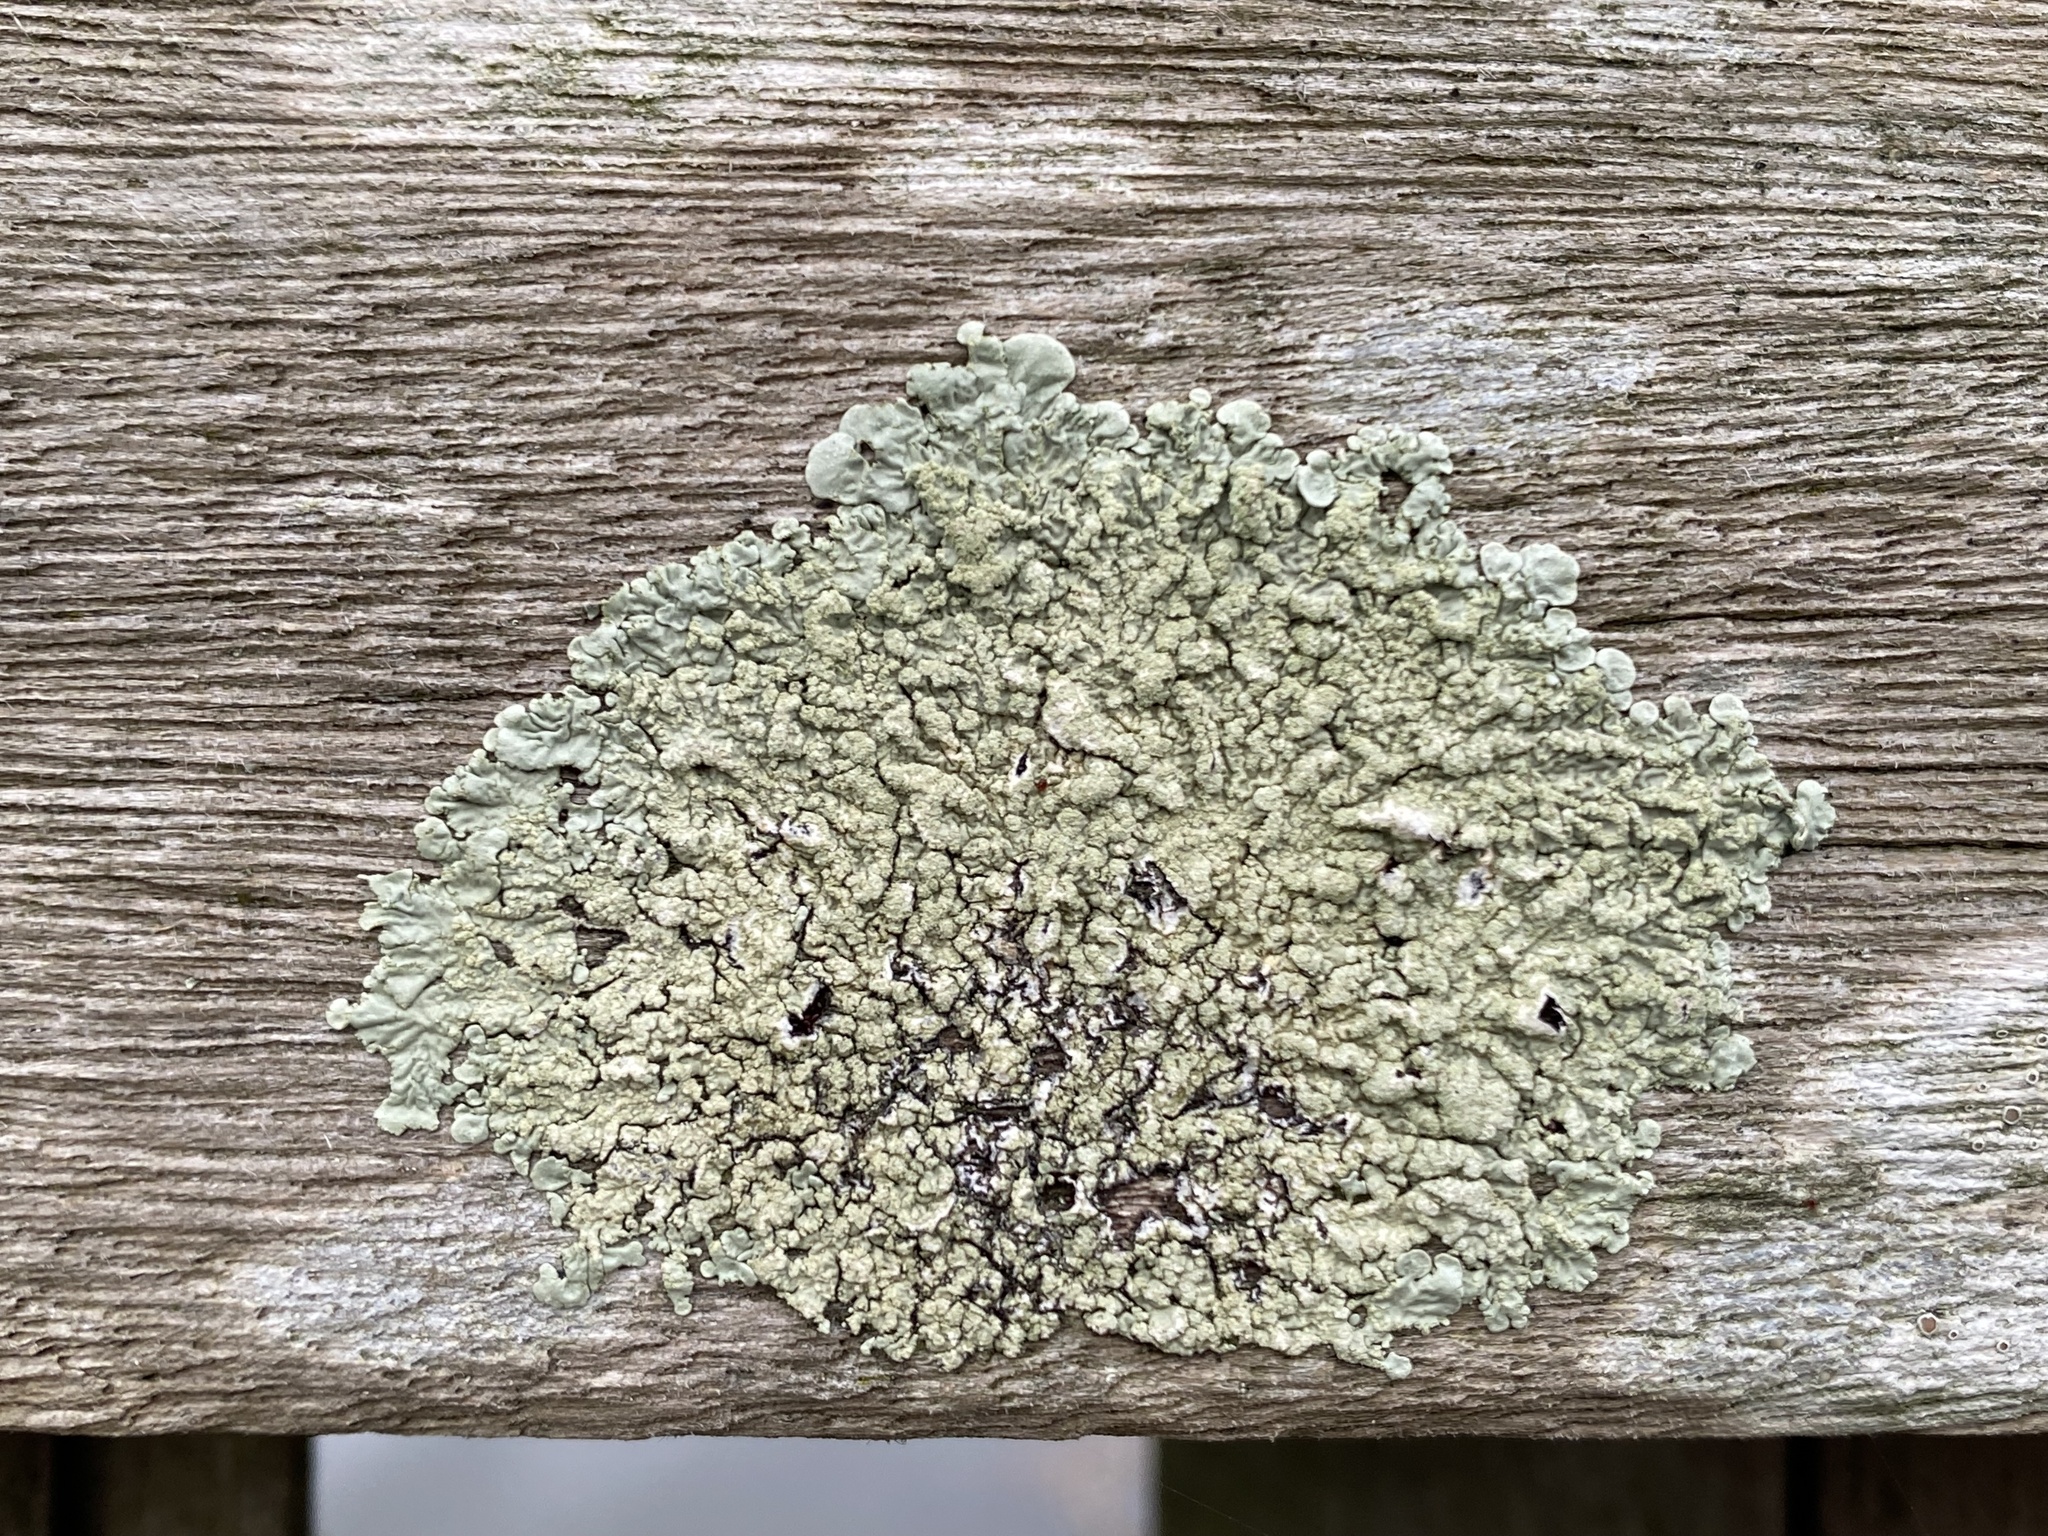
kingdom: Fungi
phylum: Ascomycota
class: Lecanoromycetes
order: Lecanorales
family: Parmeliaceae
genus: Flavoparmelia
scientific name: Flavoparmelia soredians
